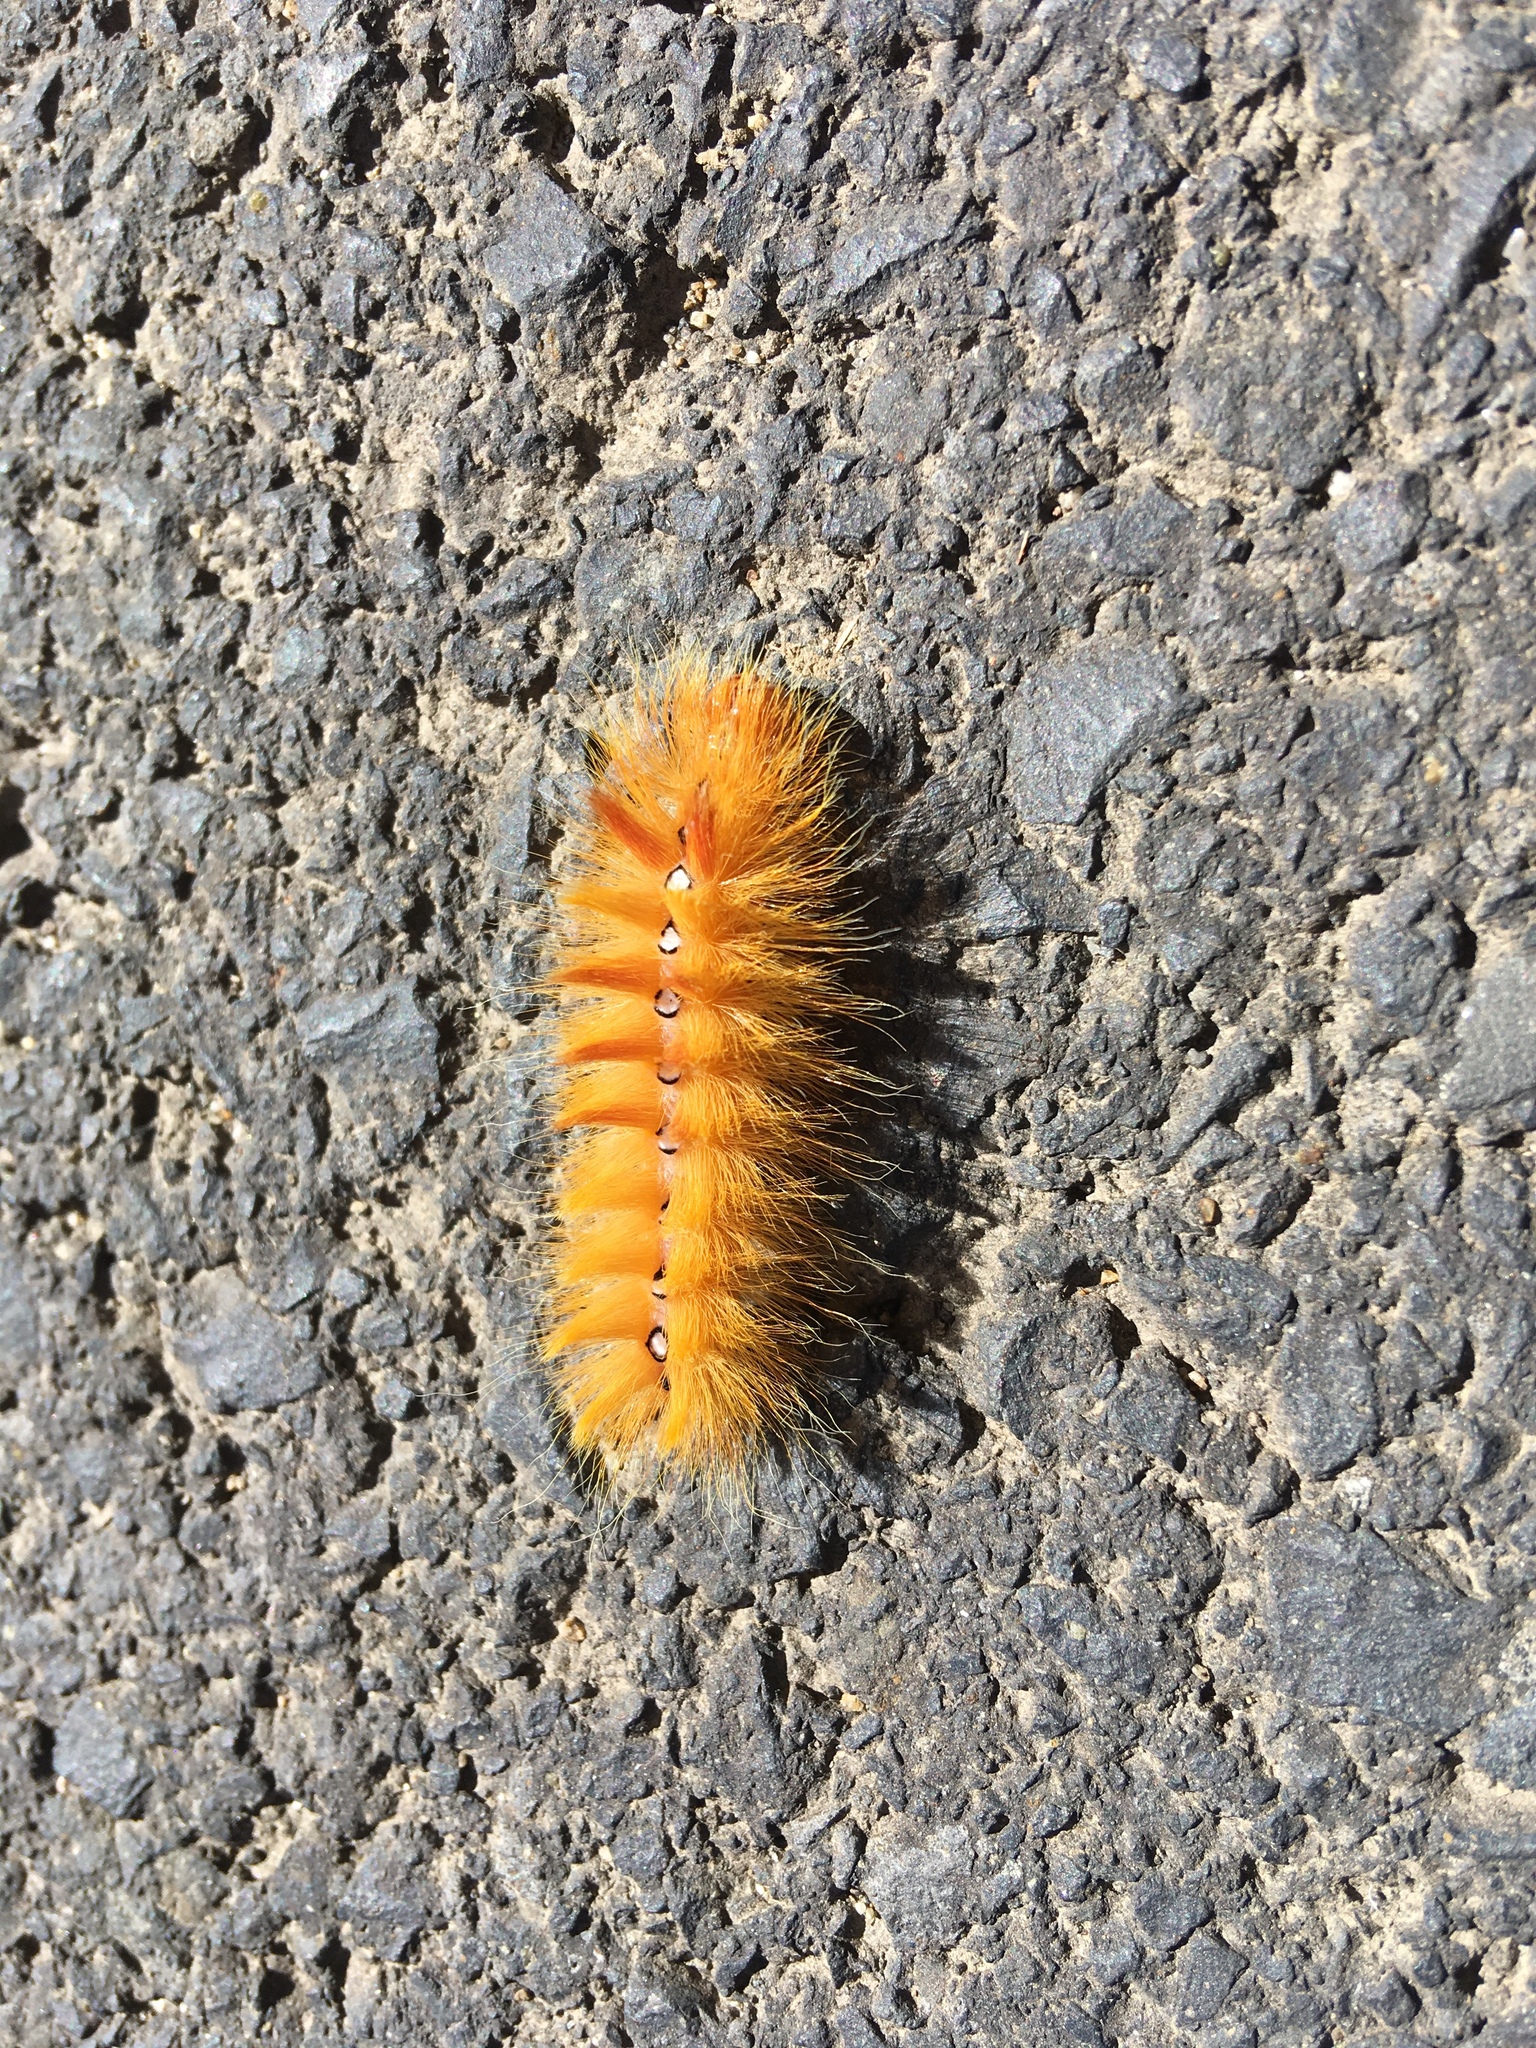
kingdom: Animalia
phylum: Arthropoda
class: Insecta
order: Lepidoptera
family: Noctuidae
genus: Acronicta
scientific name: Acronicta aceris
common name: Sycamore
